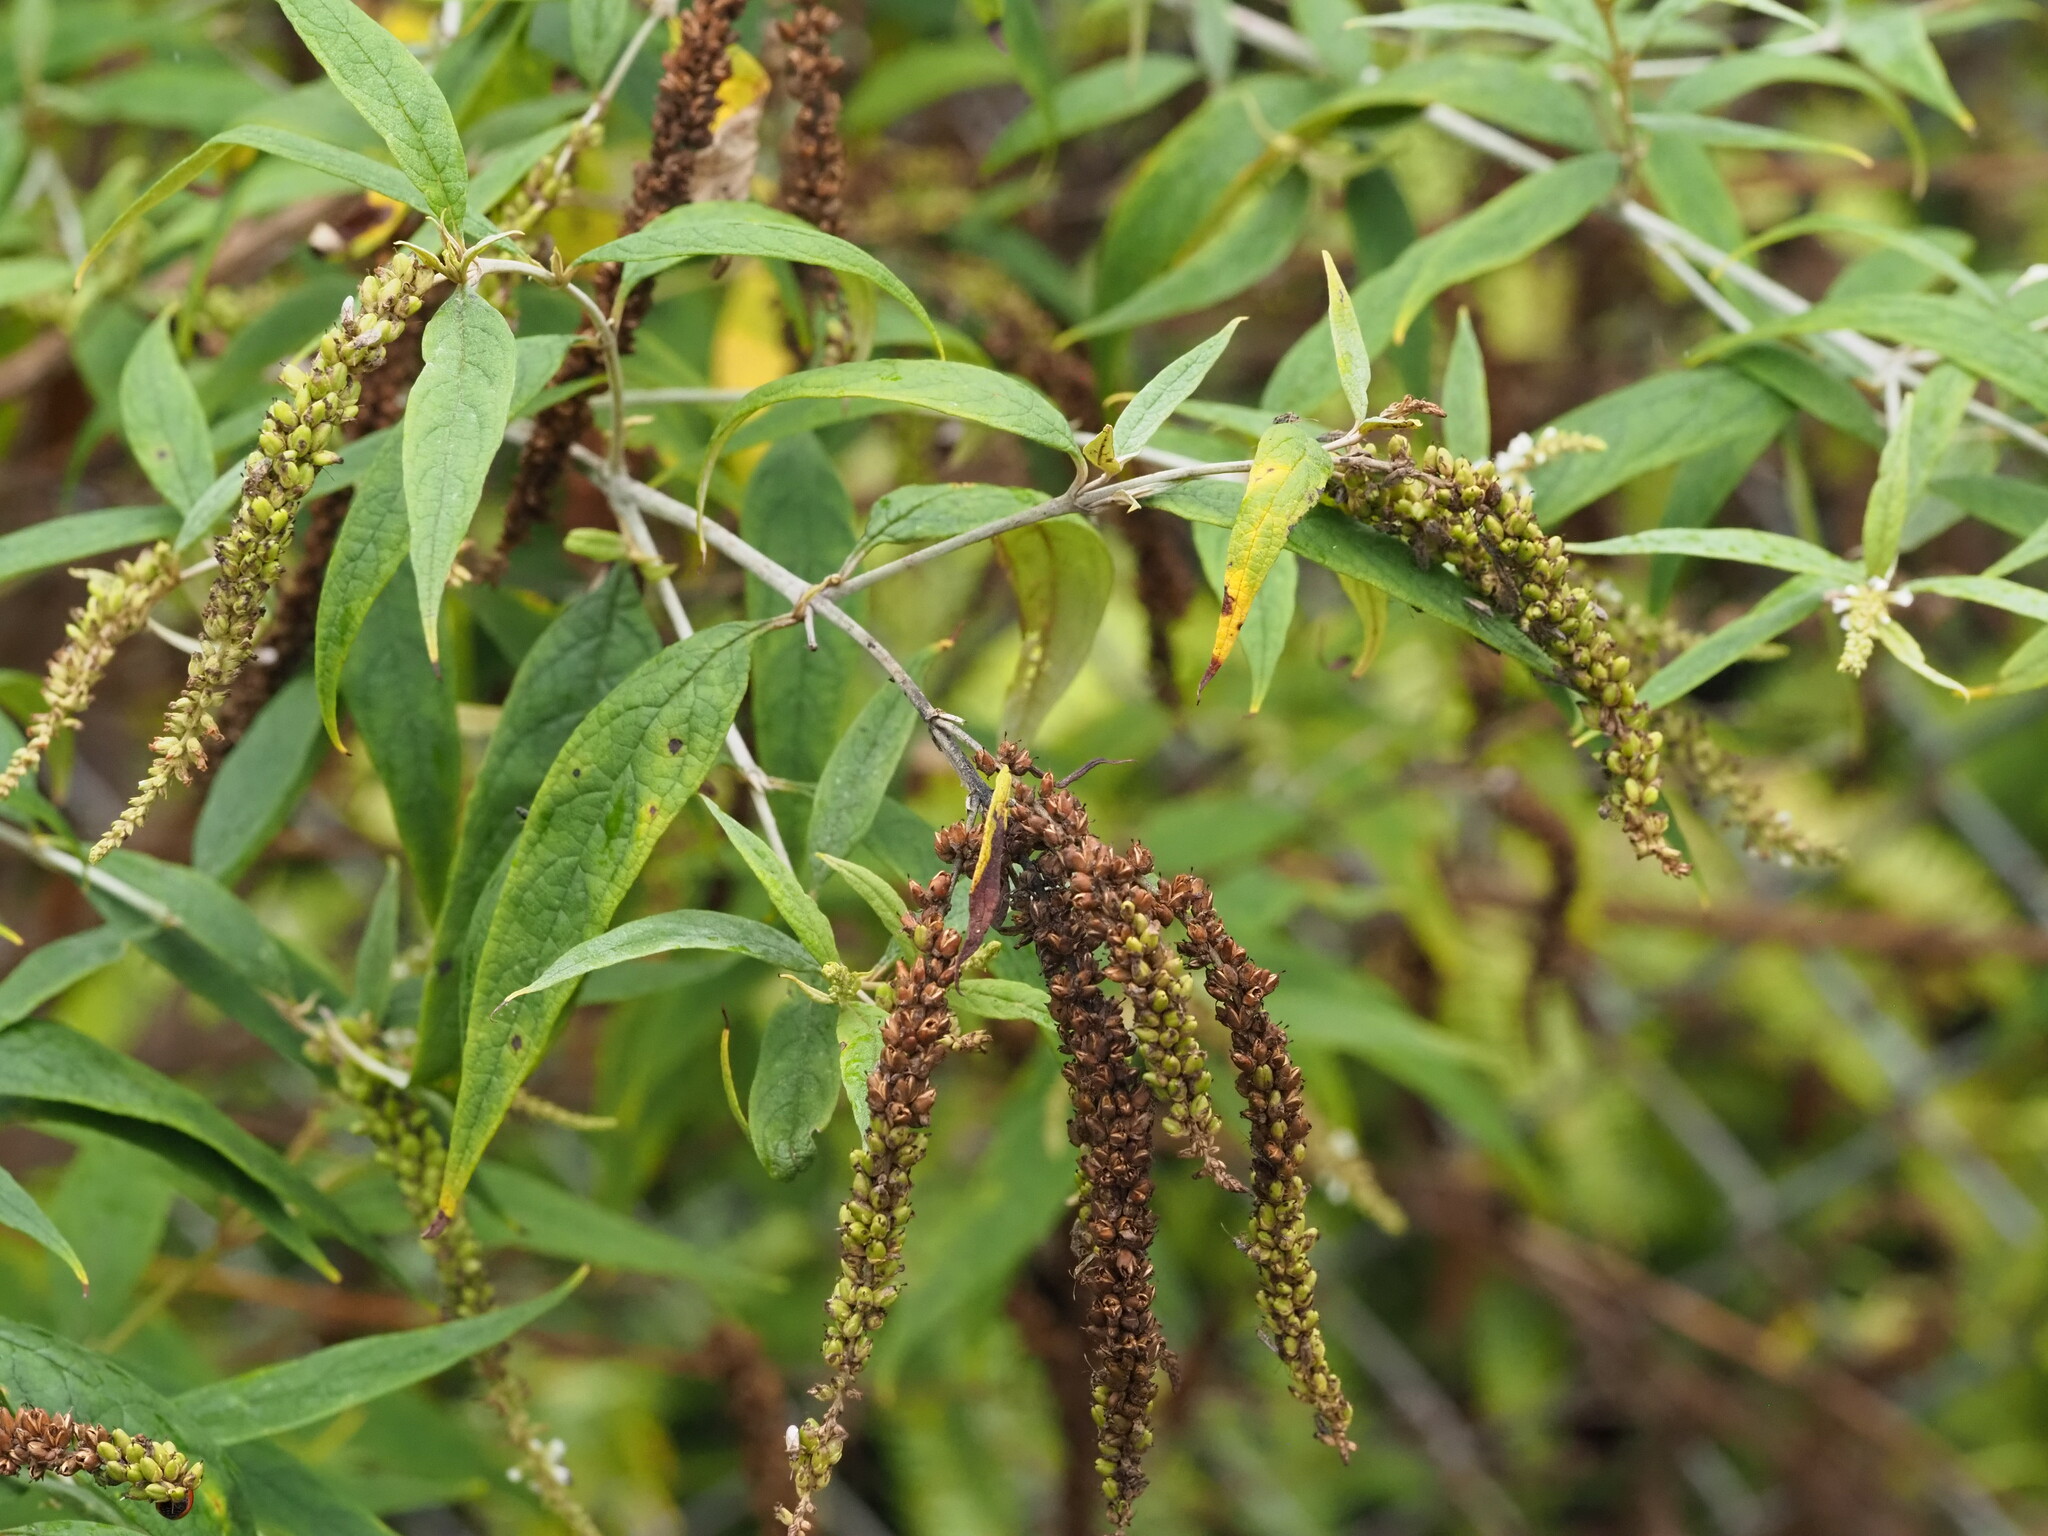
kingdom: Plantae
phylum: Tracheophyta
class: Magnoliopsida
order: Lamiales
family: Scrophulariaceae
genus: Buddleja
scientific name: Buddleja asiatica
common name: Dog tail
